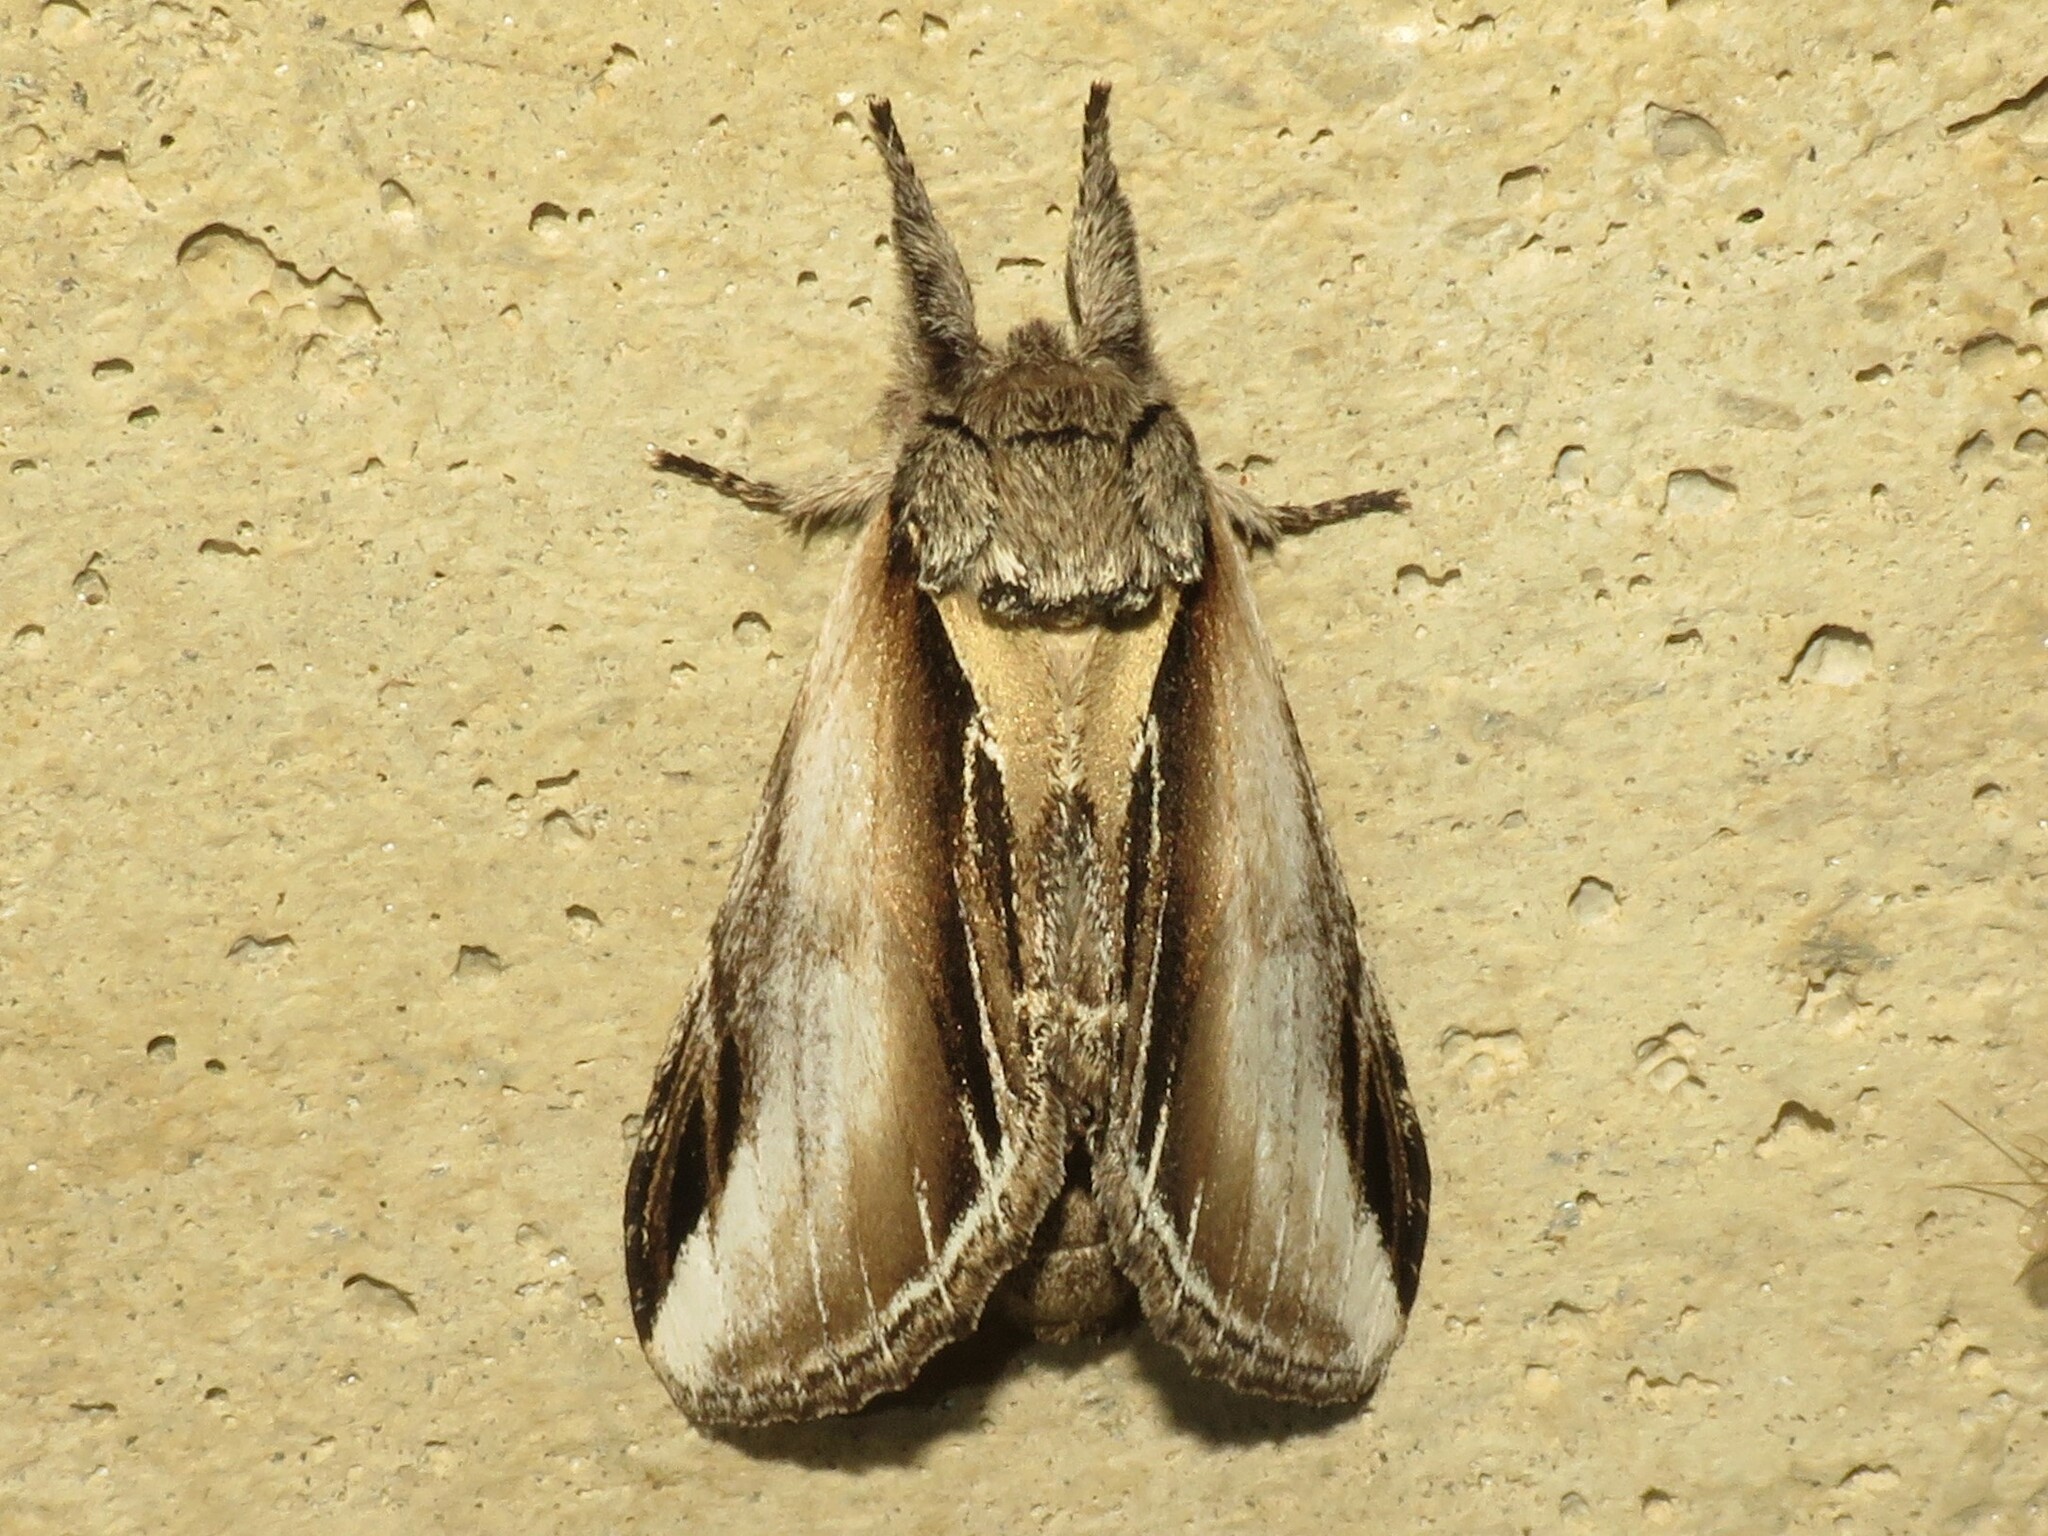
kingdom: Animalia
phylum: Arthropoda
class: Insecta
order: Lepidoptera
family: Notodontidae
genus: Pheosia
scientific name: Pheosia rimosa
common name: Black-rimmed prominent
